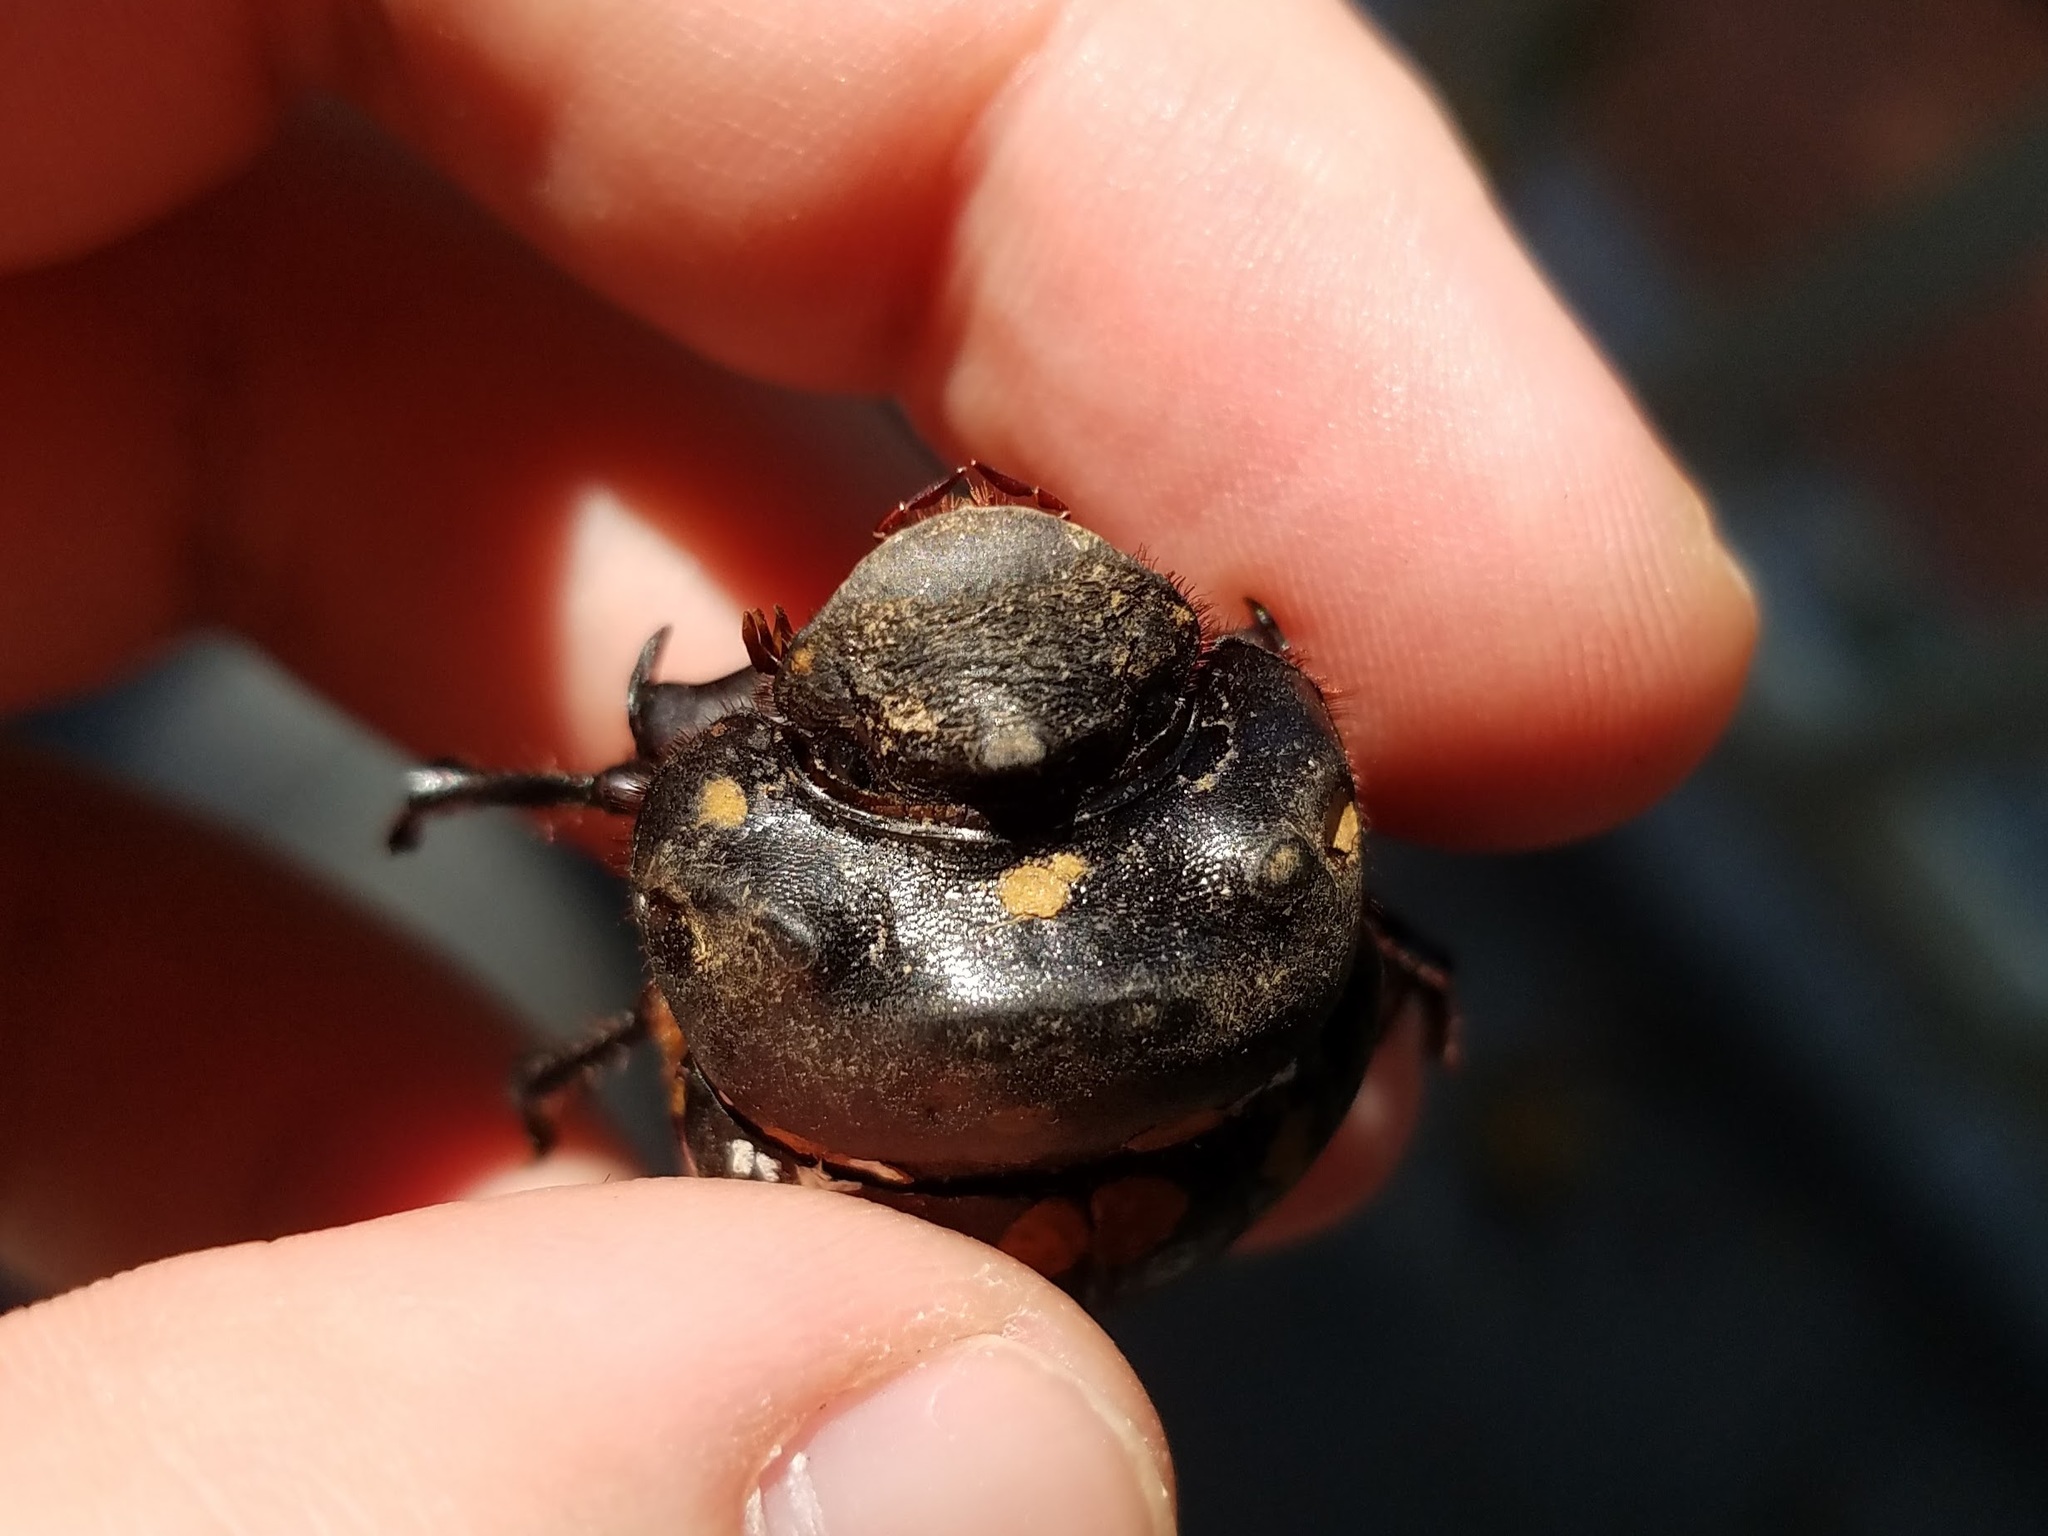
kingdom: Animalia
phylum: Arthropoda
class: Insecta
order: Coleoptera
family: Scarabaeidae
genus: Dichotomius
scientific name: Dichotomius carolinus
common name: Carolina copris
